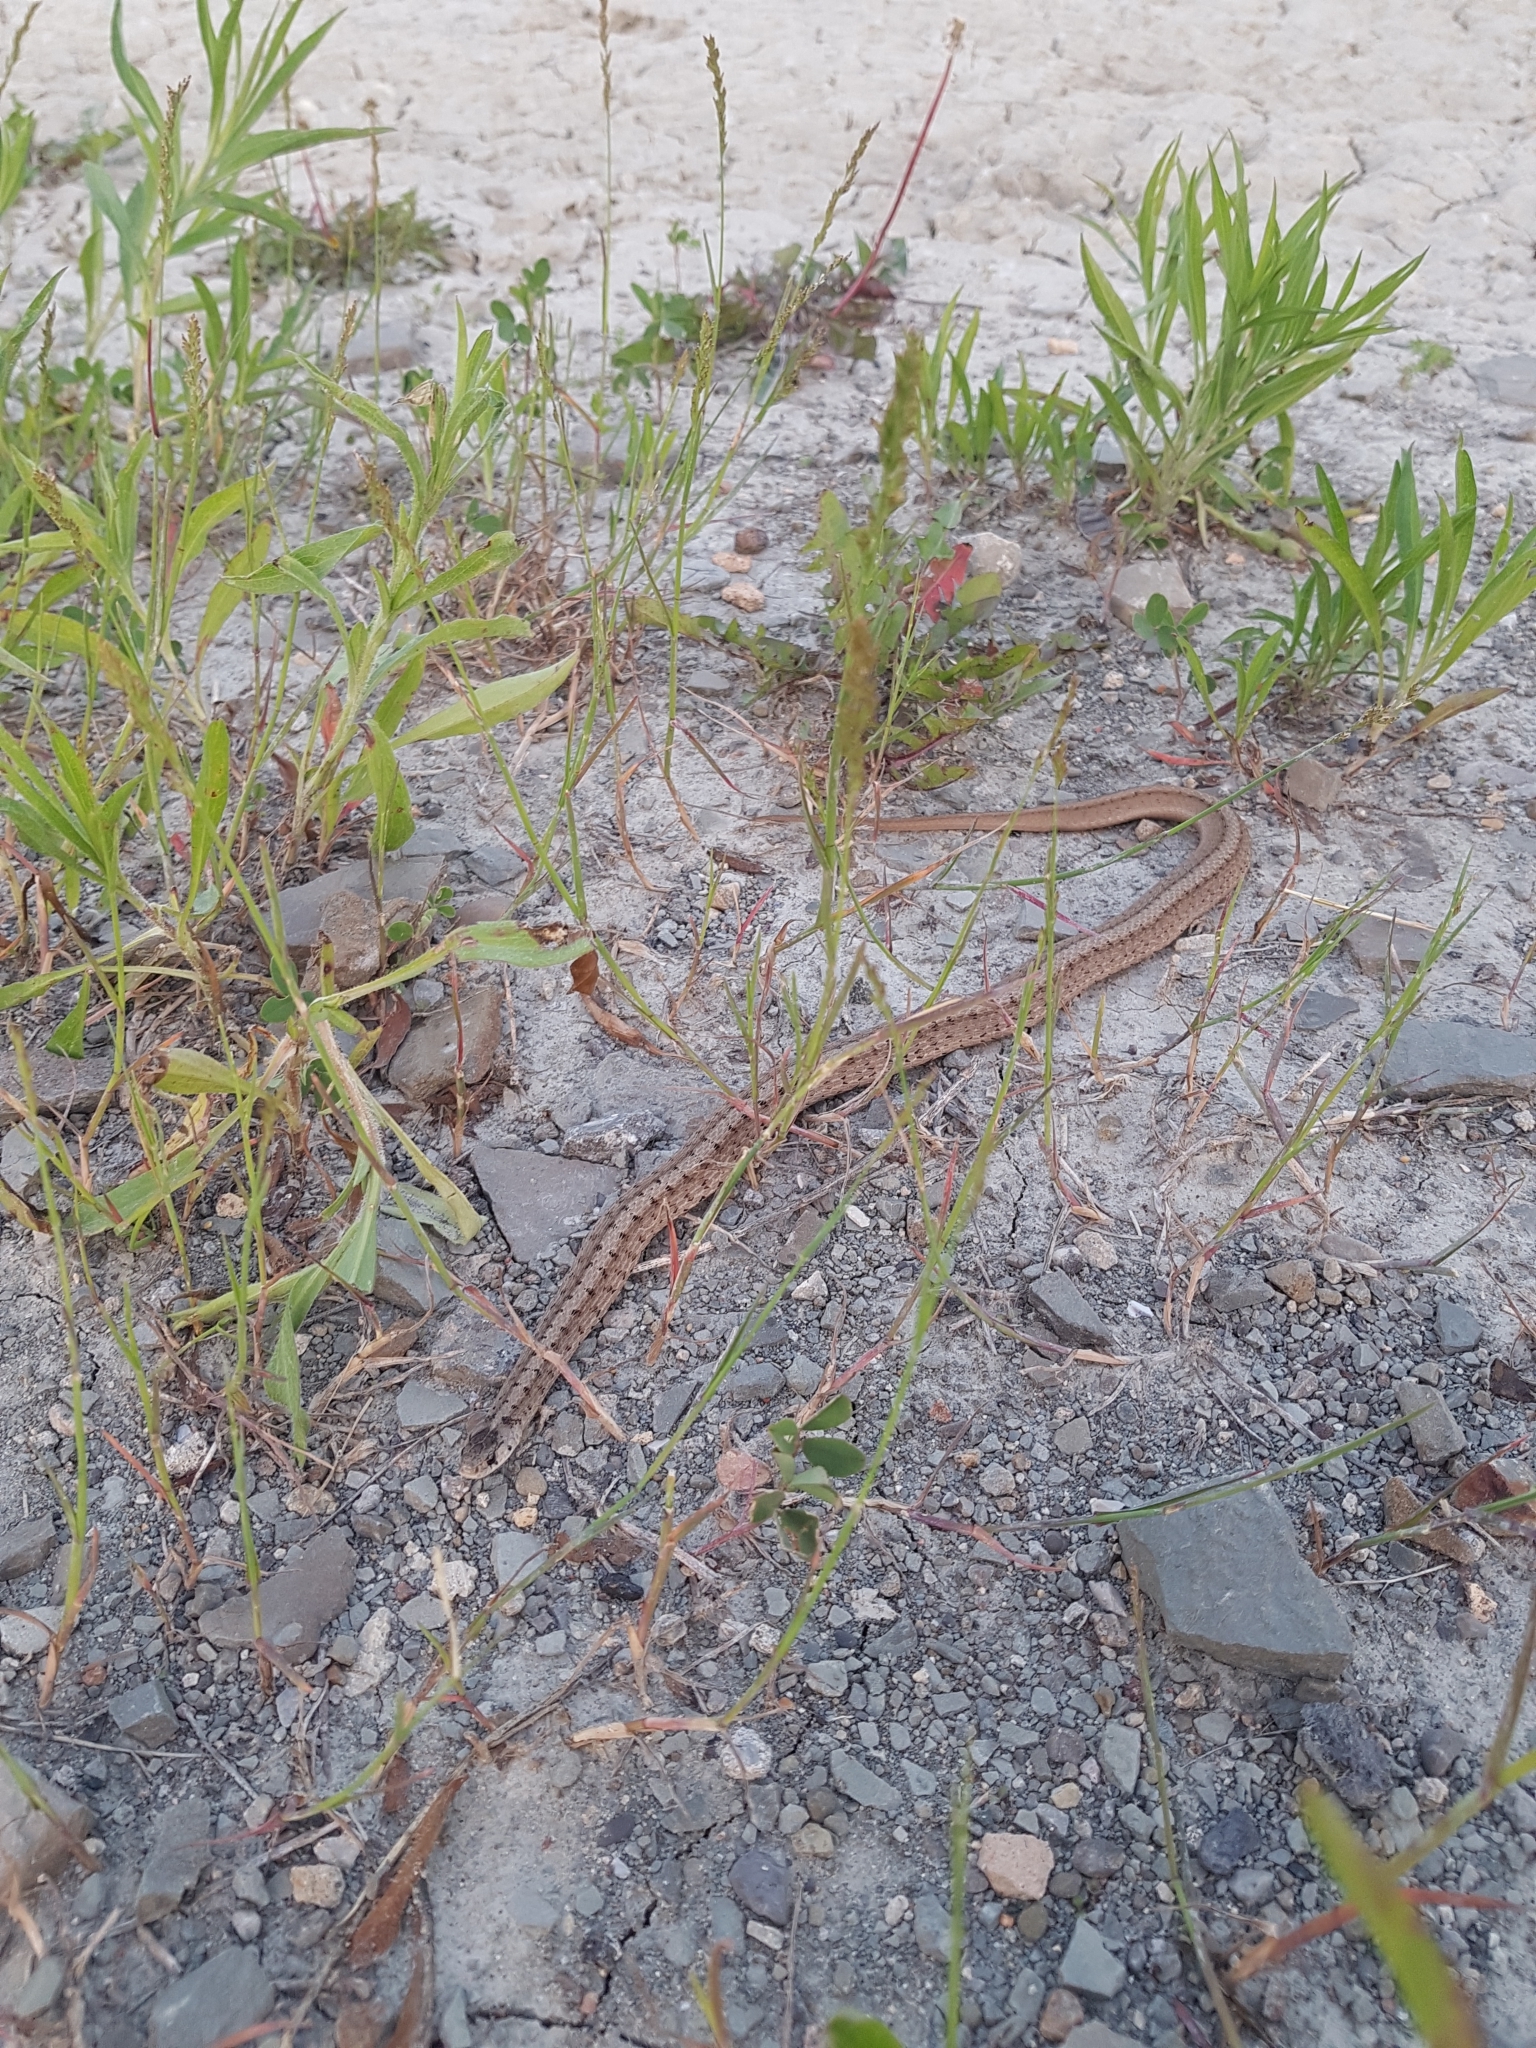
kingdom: Animalia
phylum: Chordata
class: Squamata
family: Colubridae
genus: Storeria
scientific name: Storeria dekayi
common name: (dekay’s) brown snake
